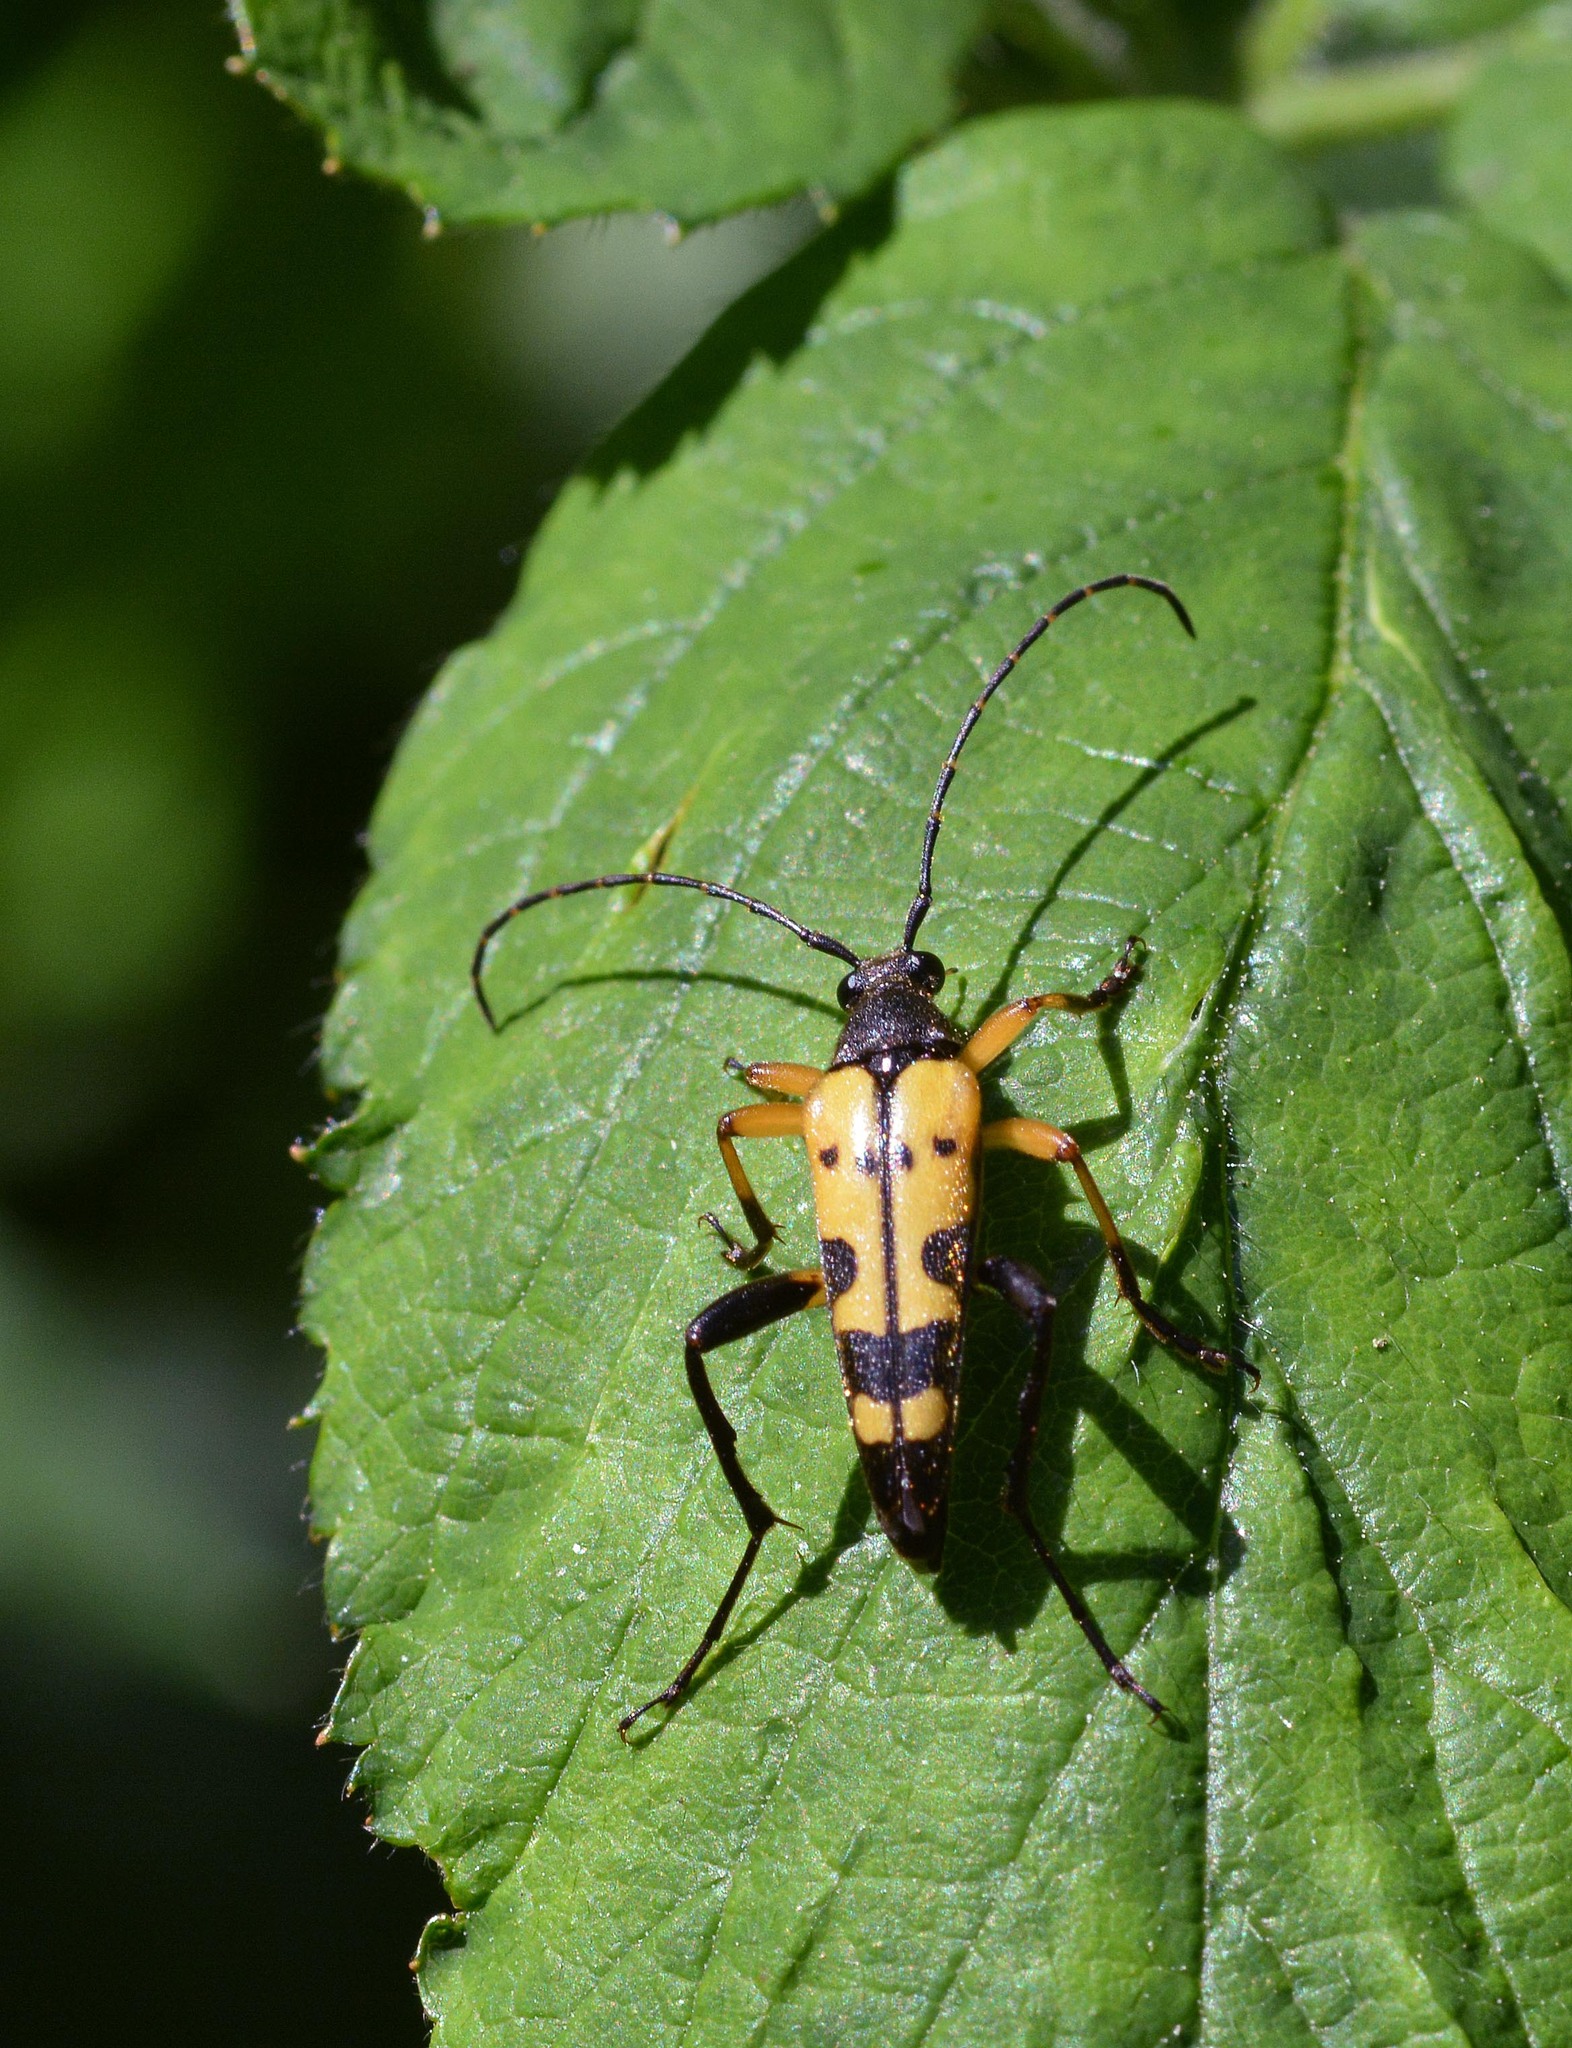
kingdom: Animalia
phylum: Arthropoda
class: Insecta
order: Coleoptera
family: Cerambycidae
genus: Rutpela
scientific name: Rutpela maculata
